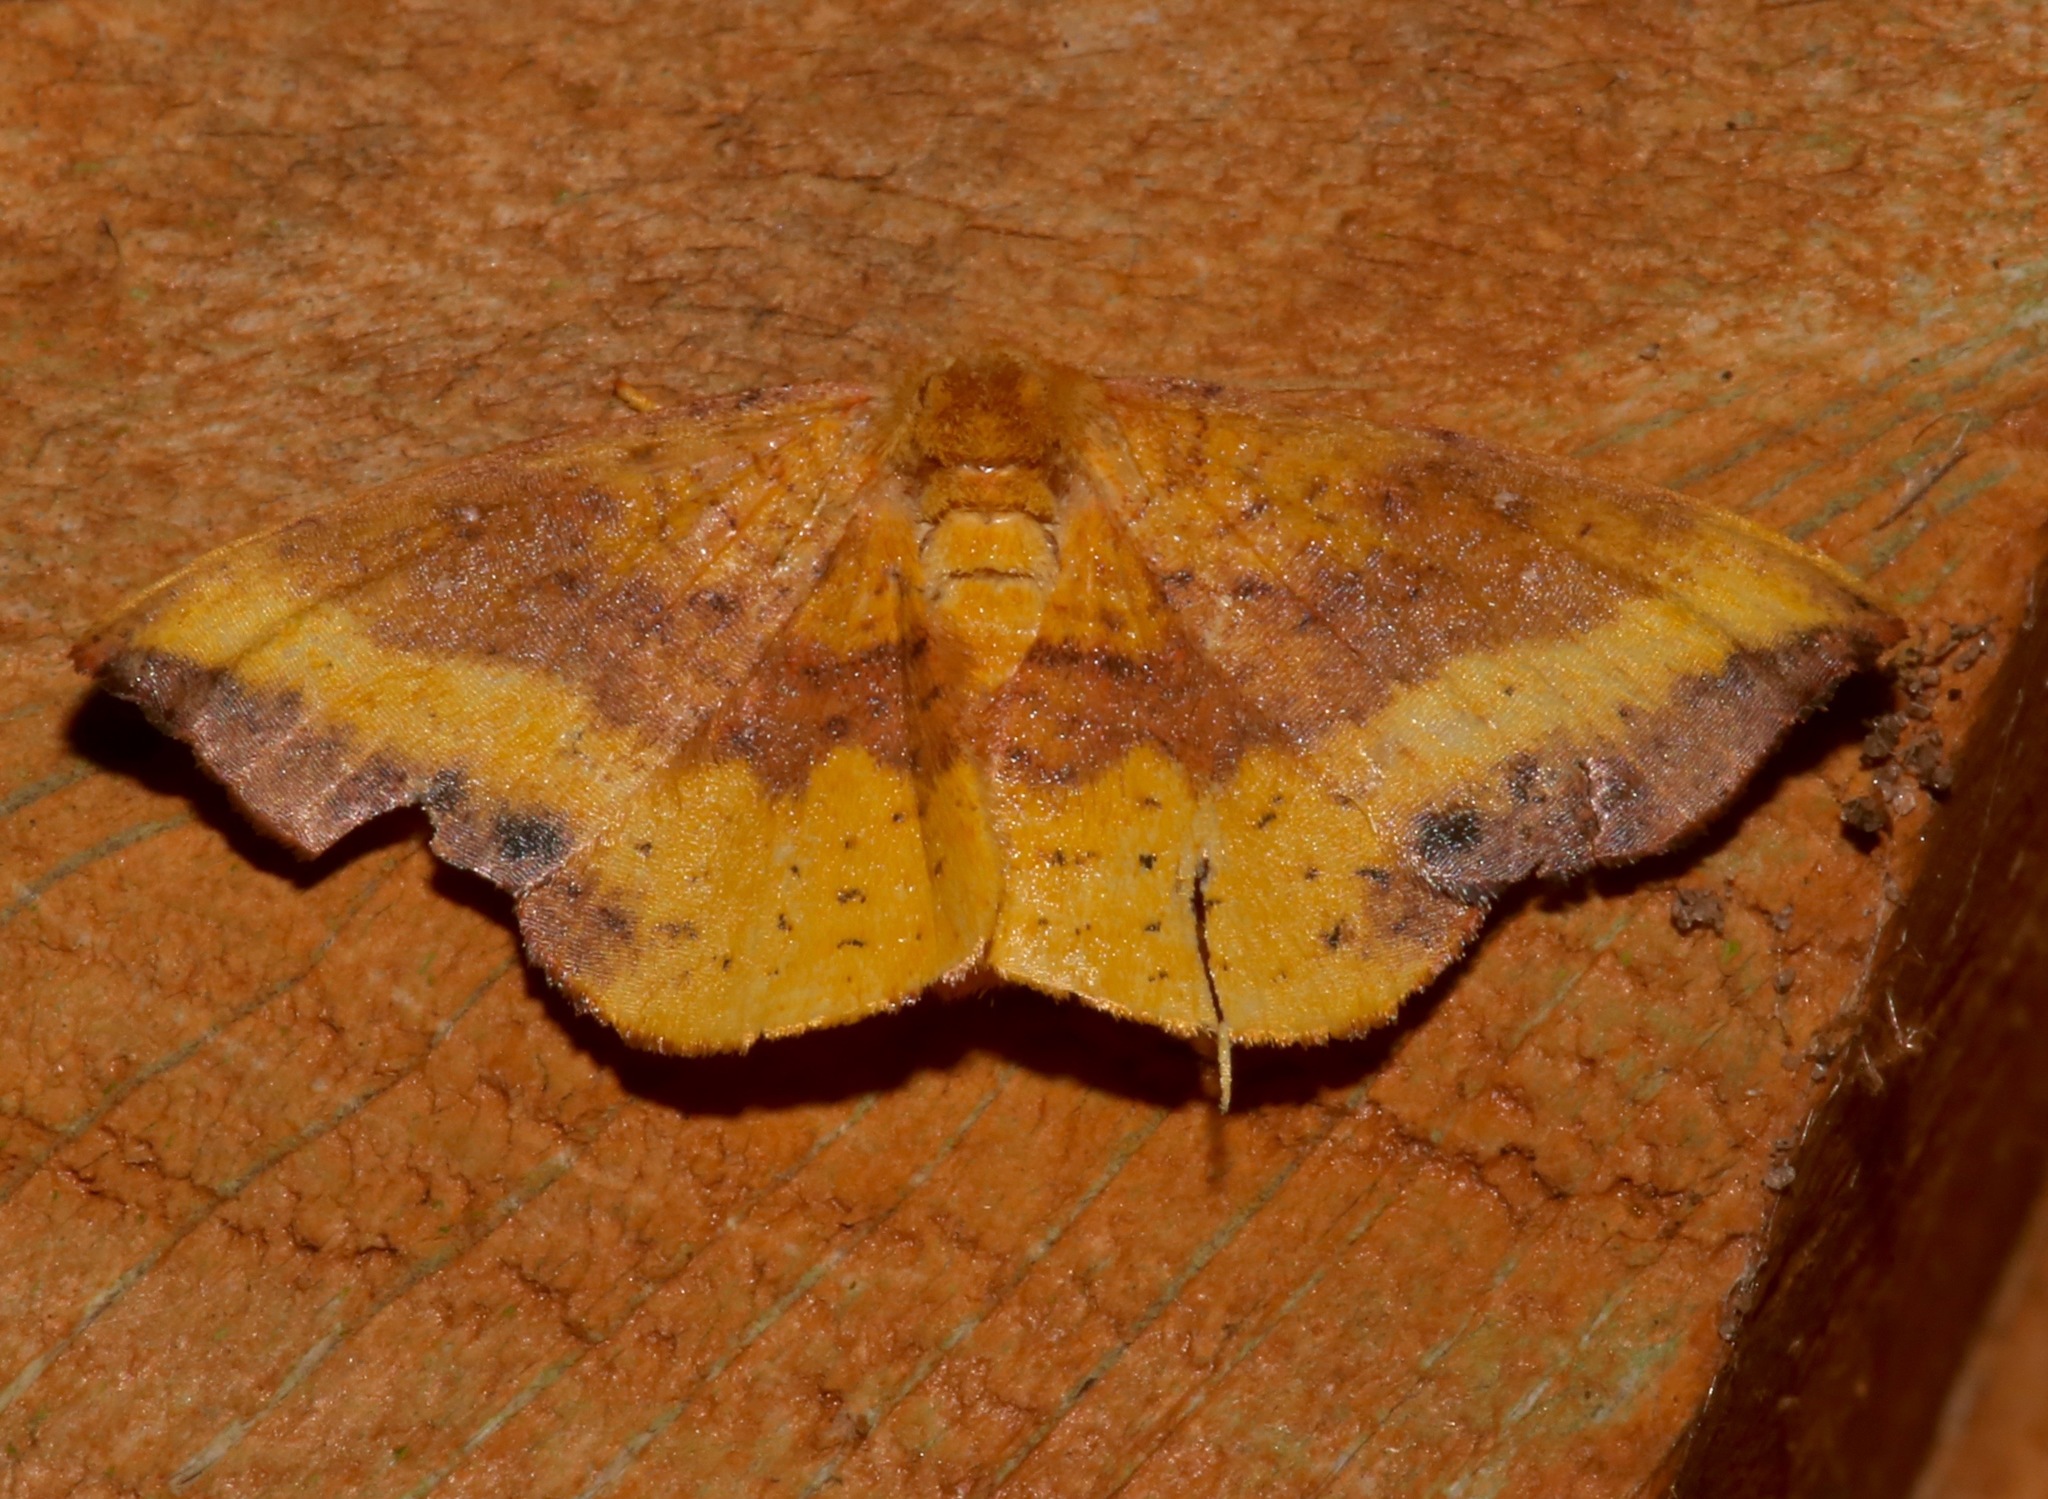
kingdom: Animalia
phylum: Arthropoda
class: Insecta
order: Lepidoptera
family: Drepanidae
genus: Oreta
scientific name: Oreta rosea
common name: Rose hooktip
